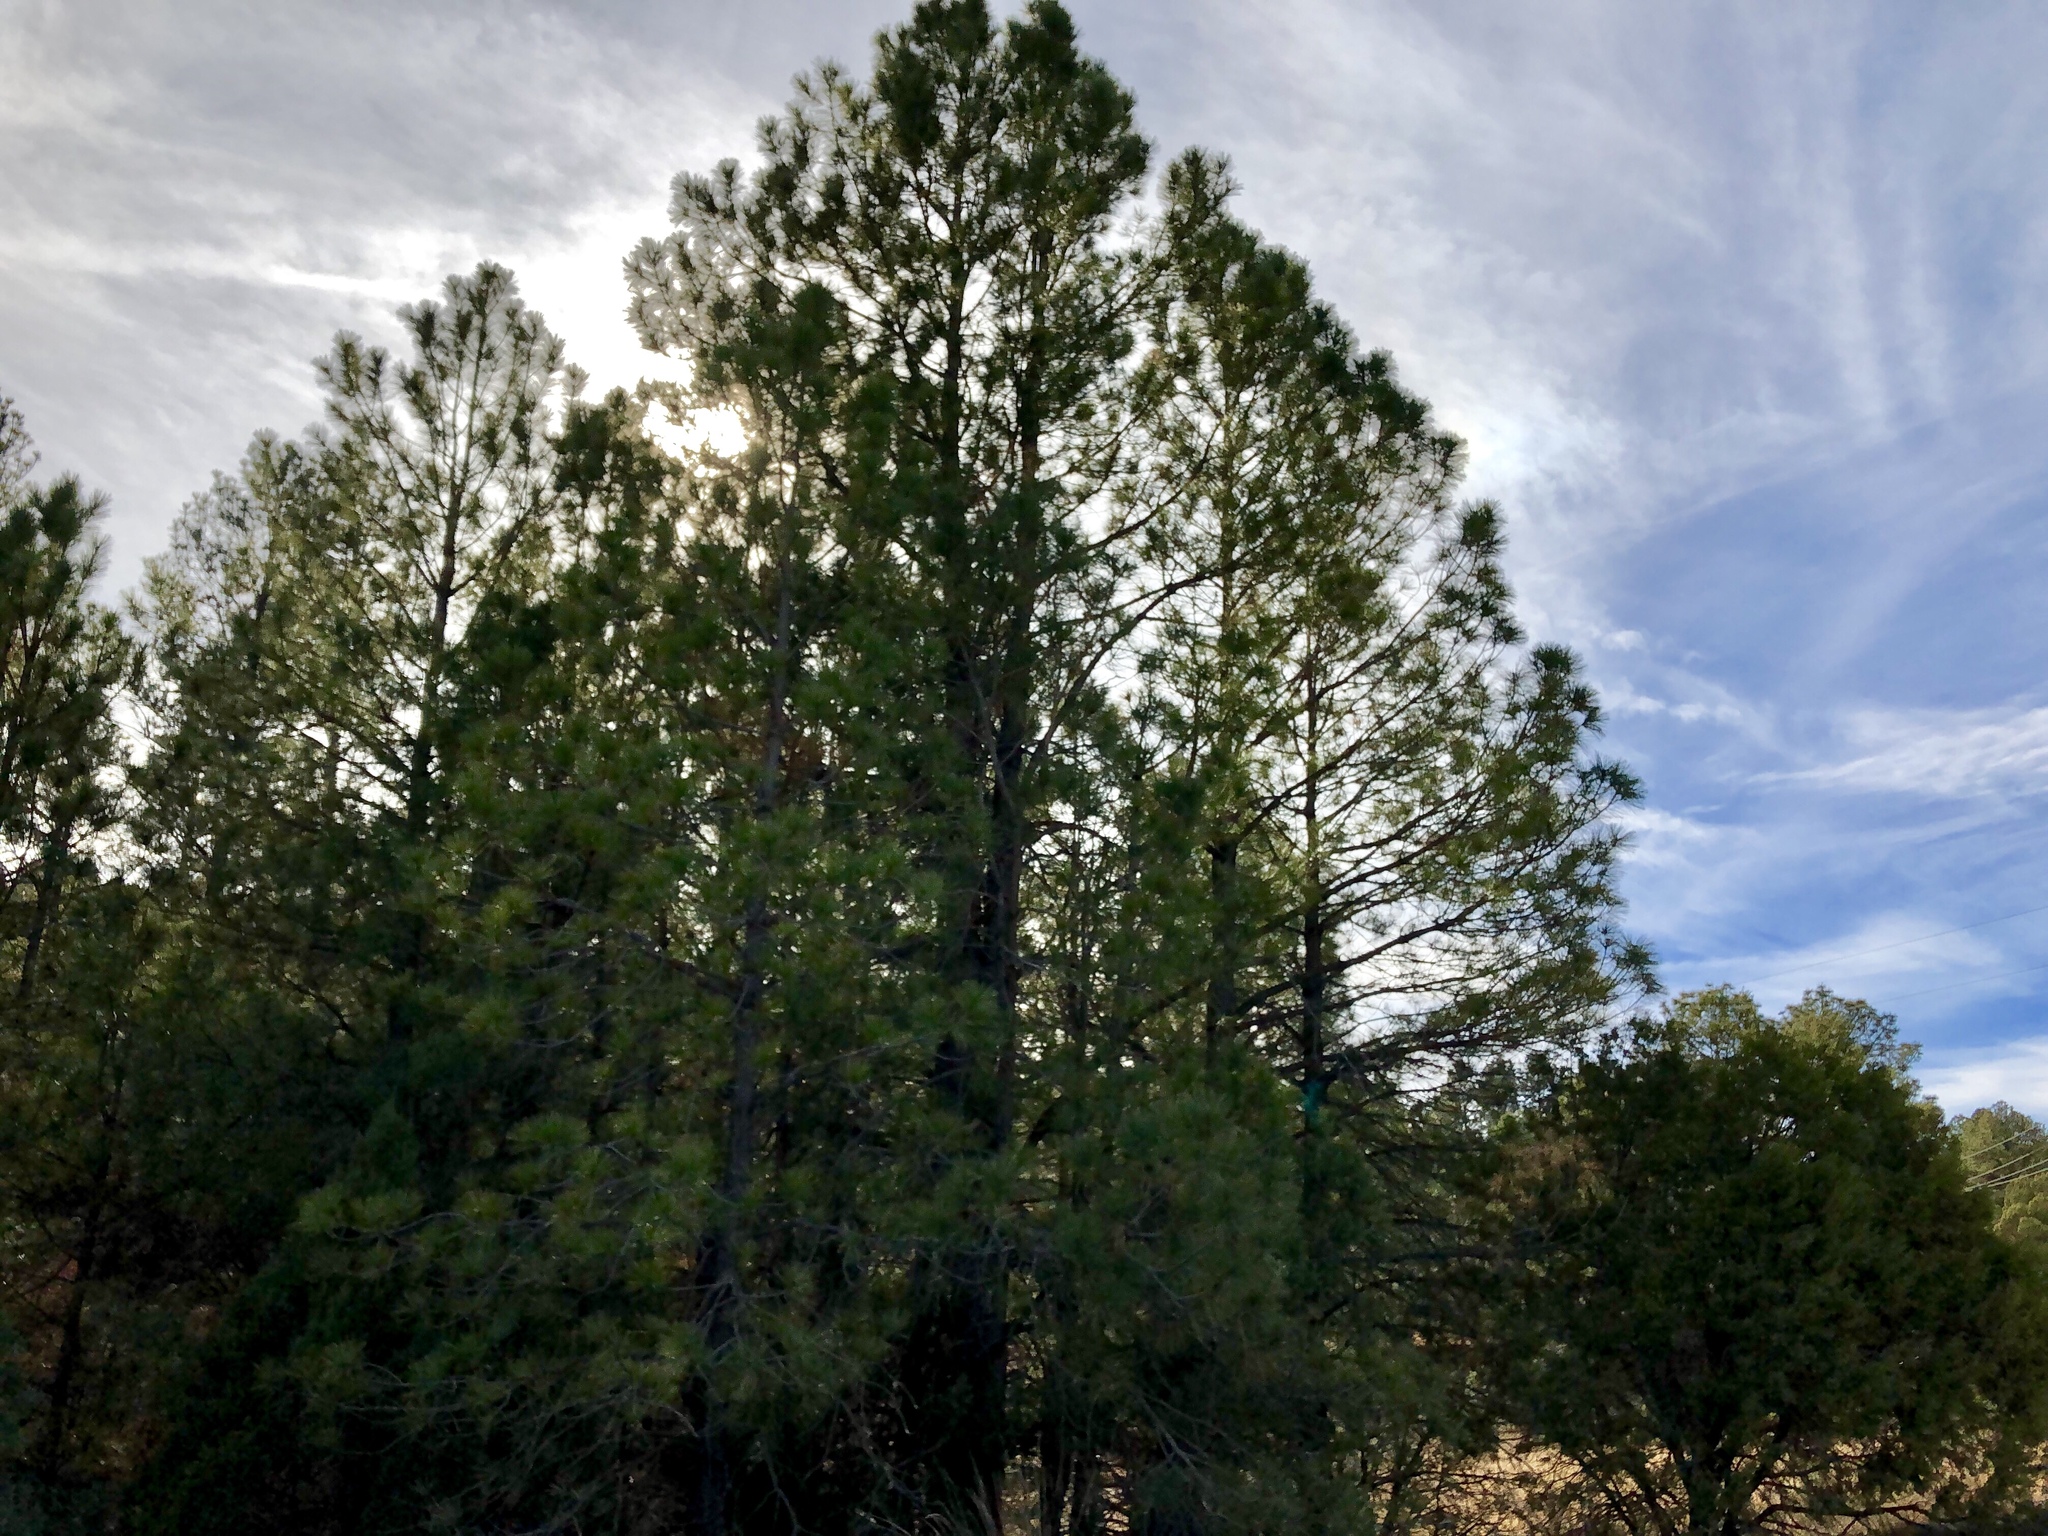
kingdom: Plantae
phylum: Tracheophyta
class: Pinopsida
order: Pinales
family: Pinaceae
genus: Pinus
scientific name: Pinus ponderosa
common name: Western yellow-pine
